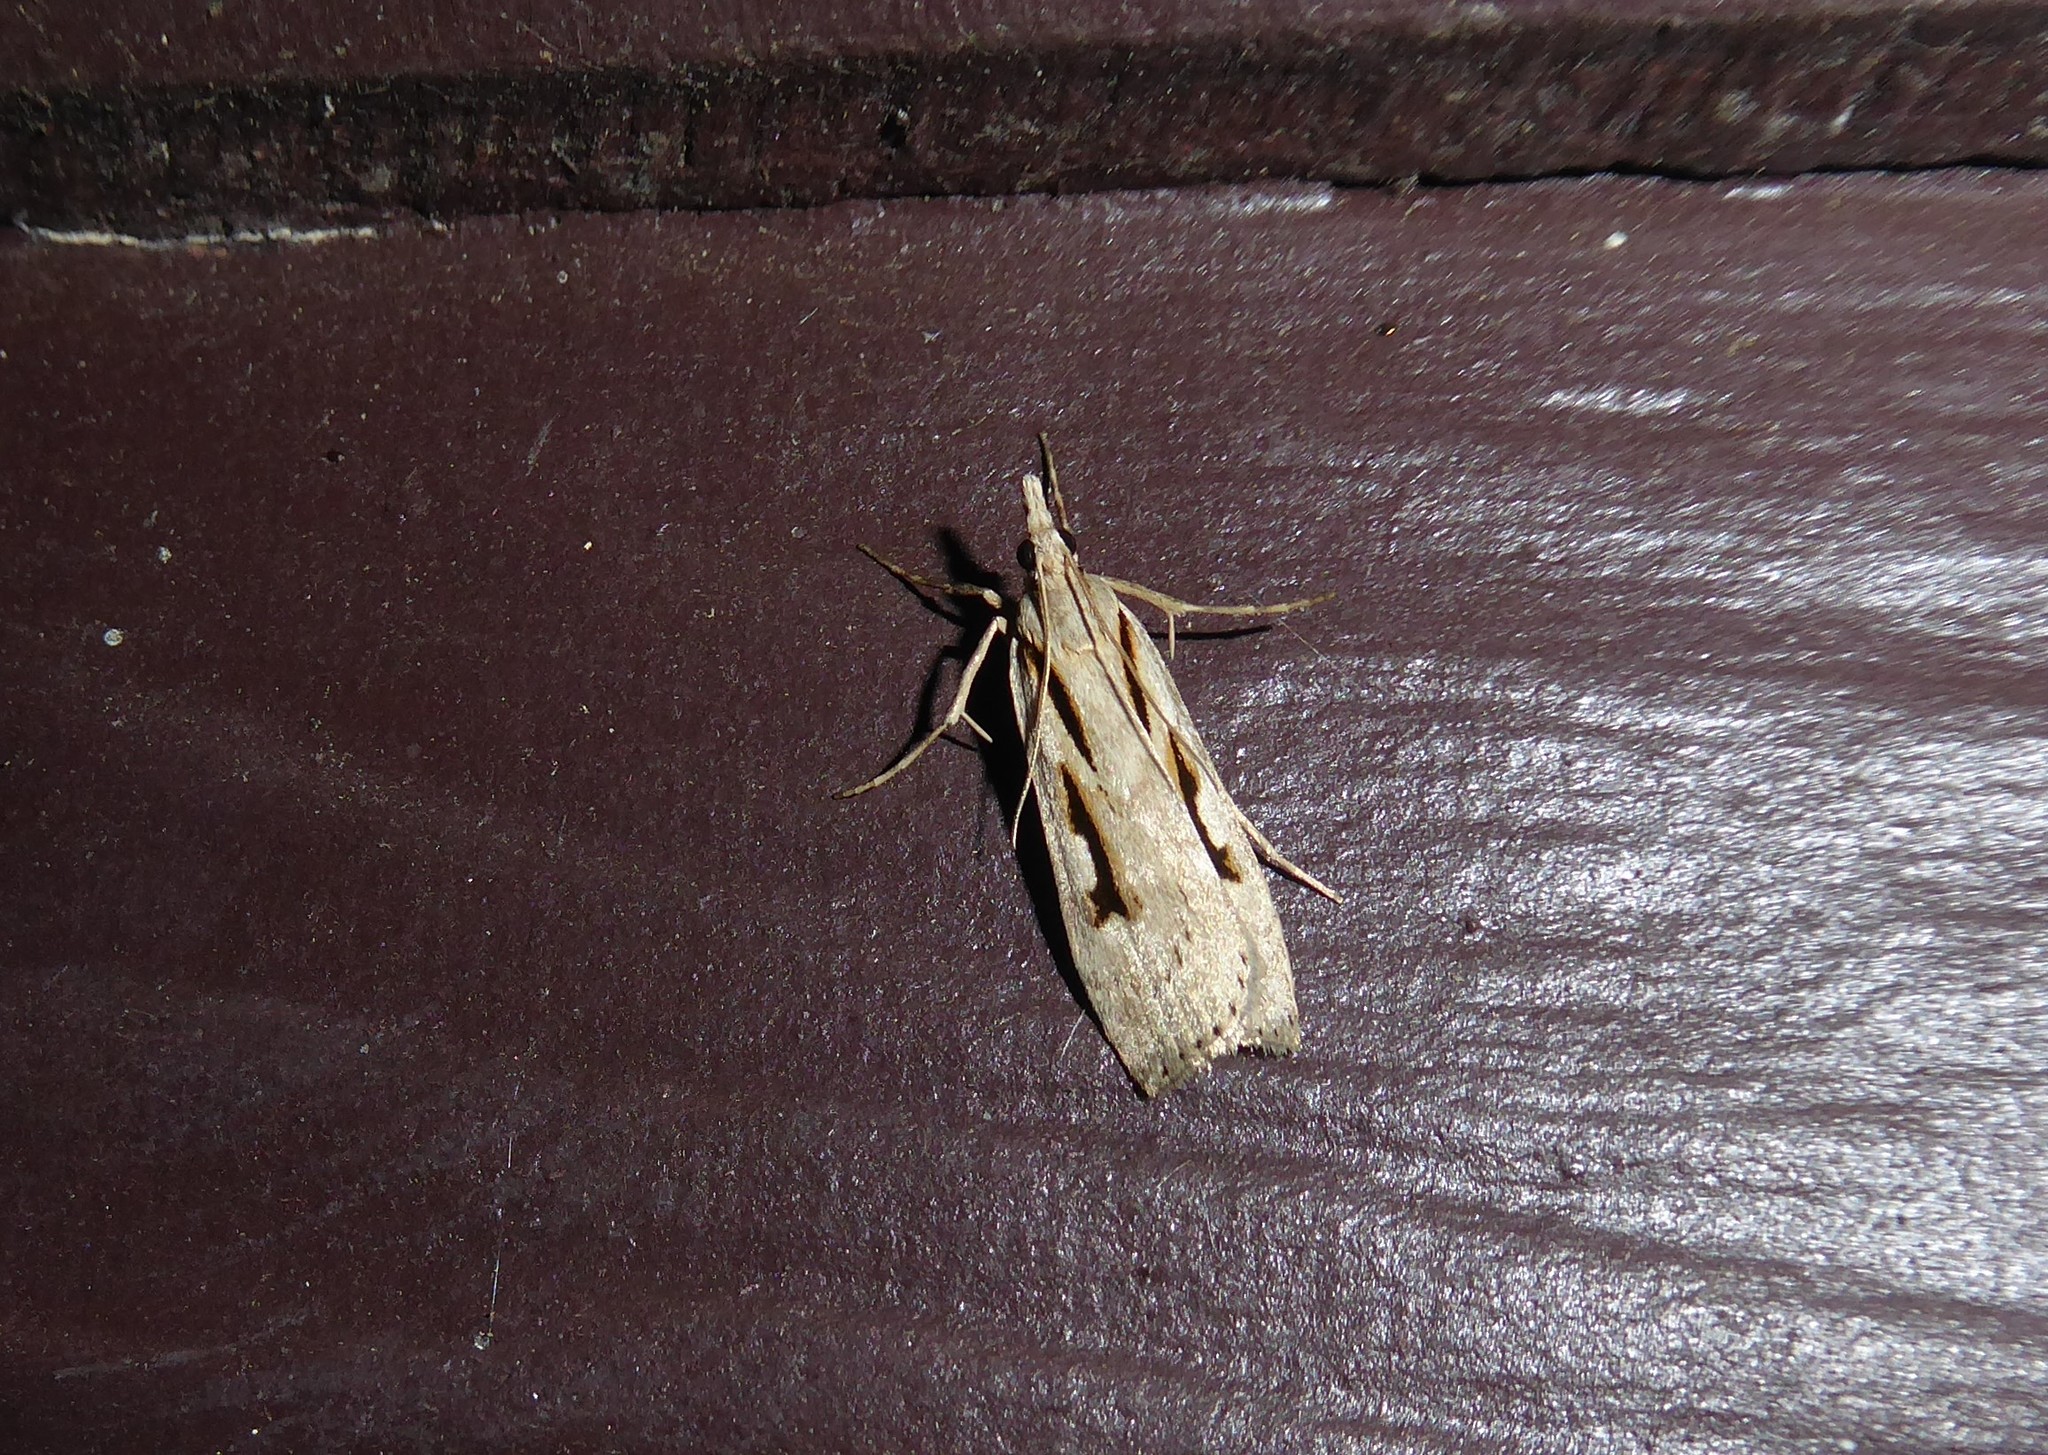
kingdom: Animalia
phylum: Arthropoda
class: Insecta
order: Lepidoptera
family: Crambidae
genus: Scoparia
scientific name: Scoparia rotuellus
